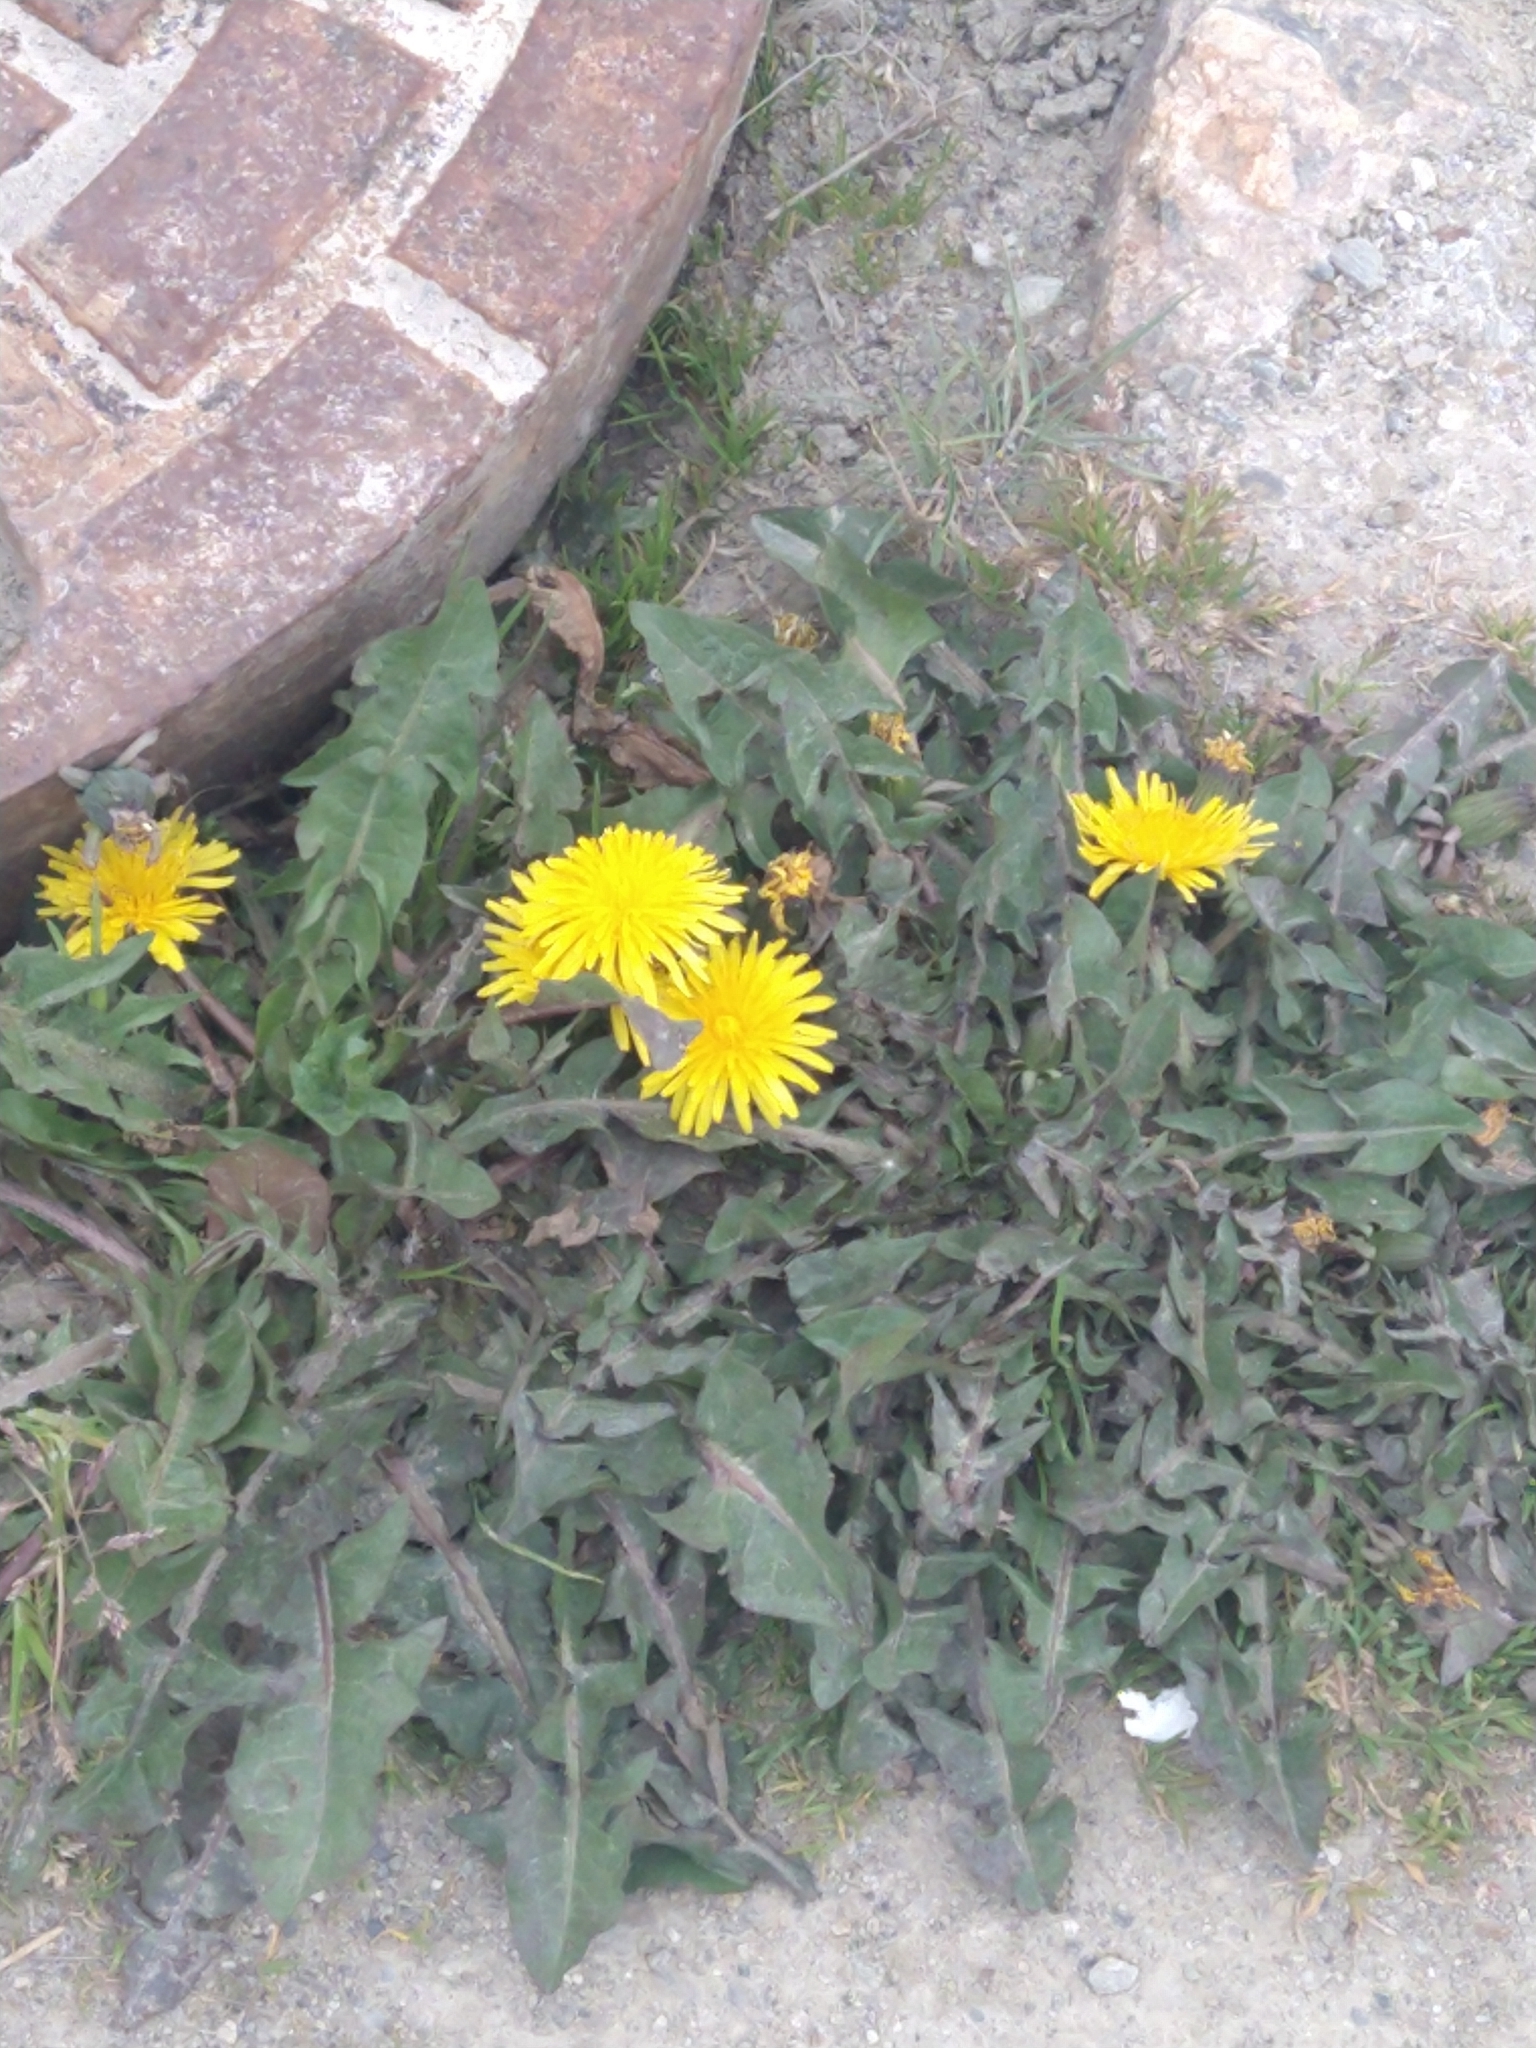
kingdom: Plantae
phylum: Tracheophyta
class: Magnoliopsida
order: Asterales
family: Asteraceae
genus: Taraxacum
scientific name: Taraxacum officinale
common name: Common dandelion
